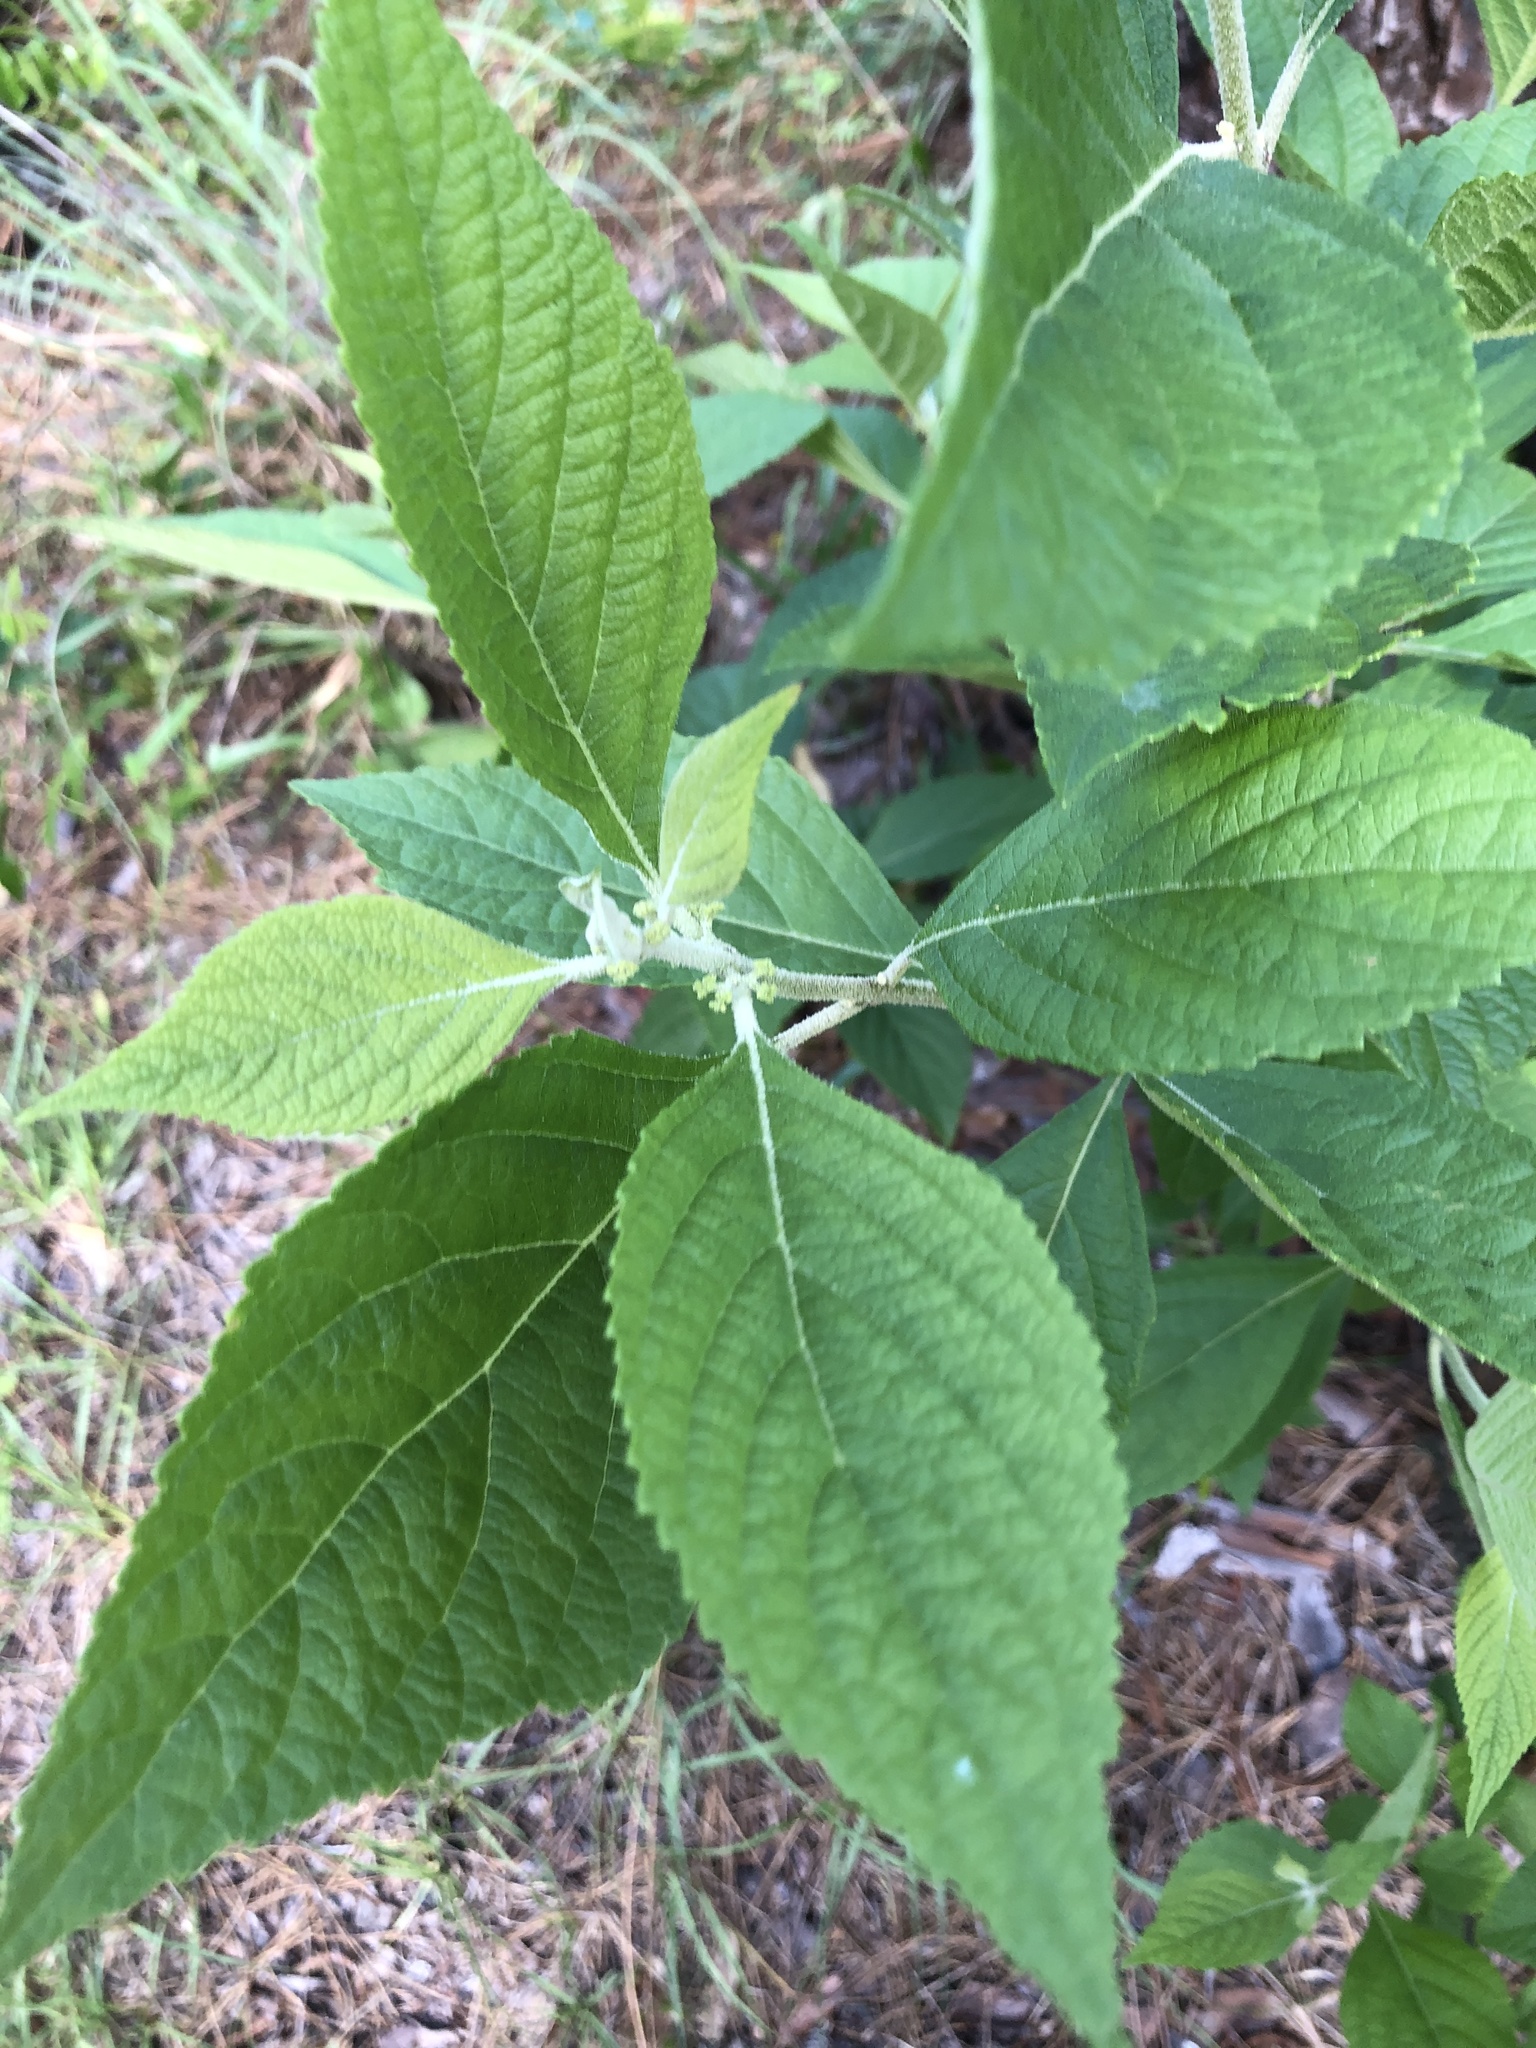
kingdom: Plantae
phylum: Tracheophyta
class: Magnoliopsida
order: Lamiales
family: Lamiaceae
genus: Callicarpa
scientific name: Callicarpa americana
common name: American beautyberry
